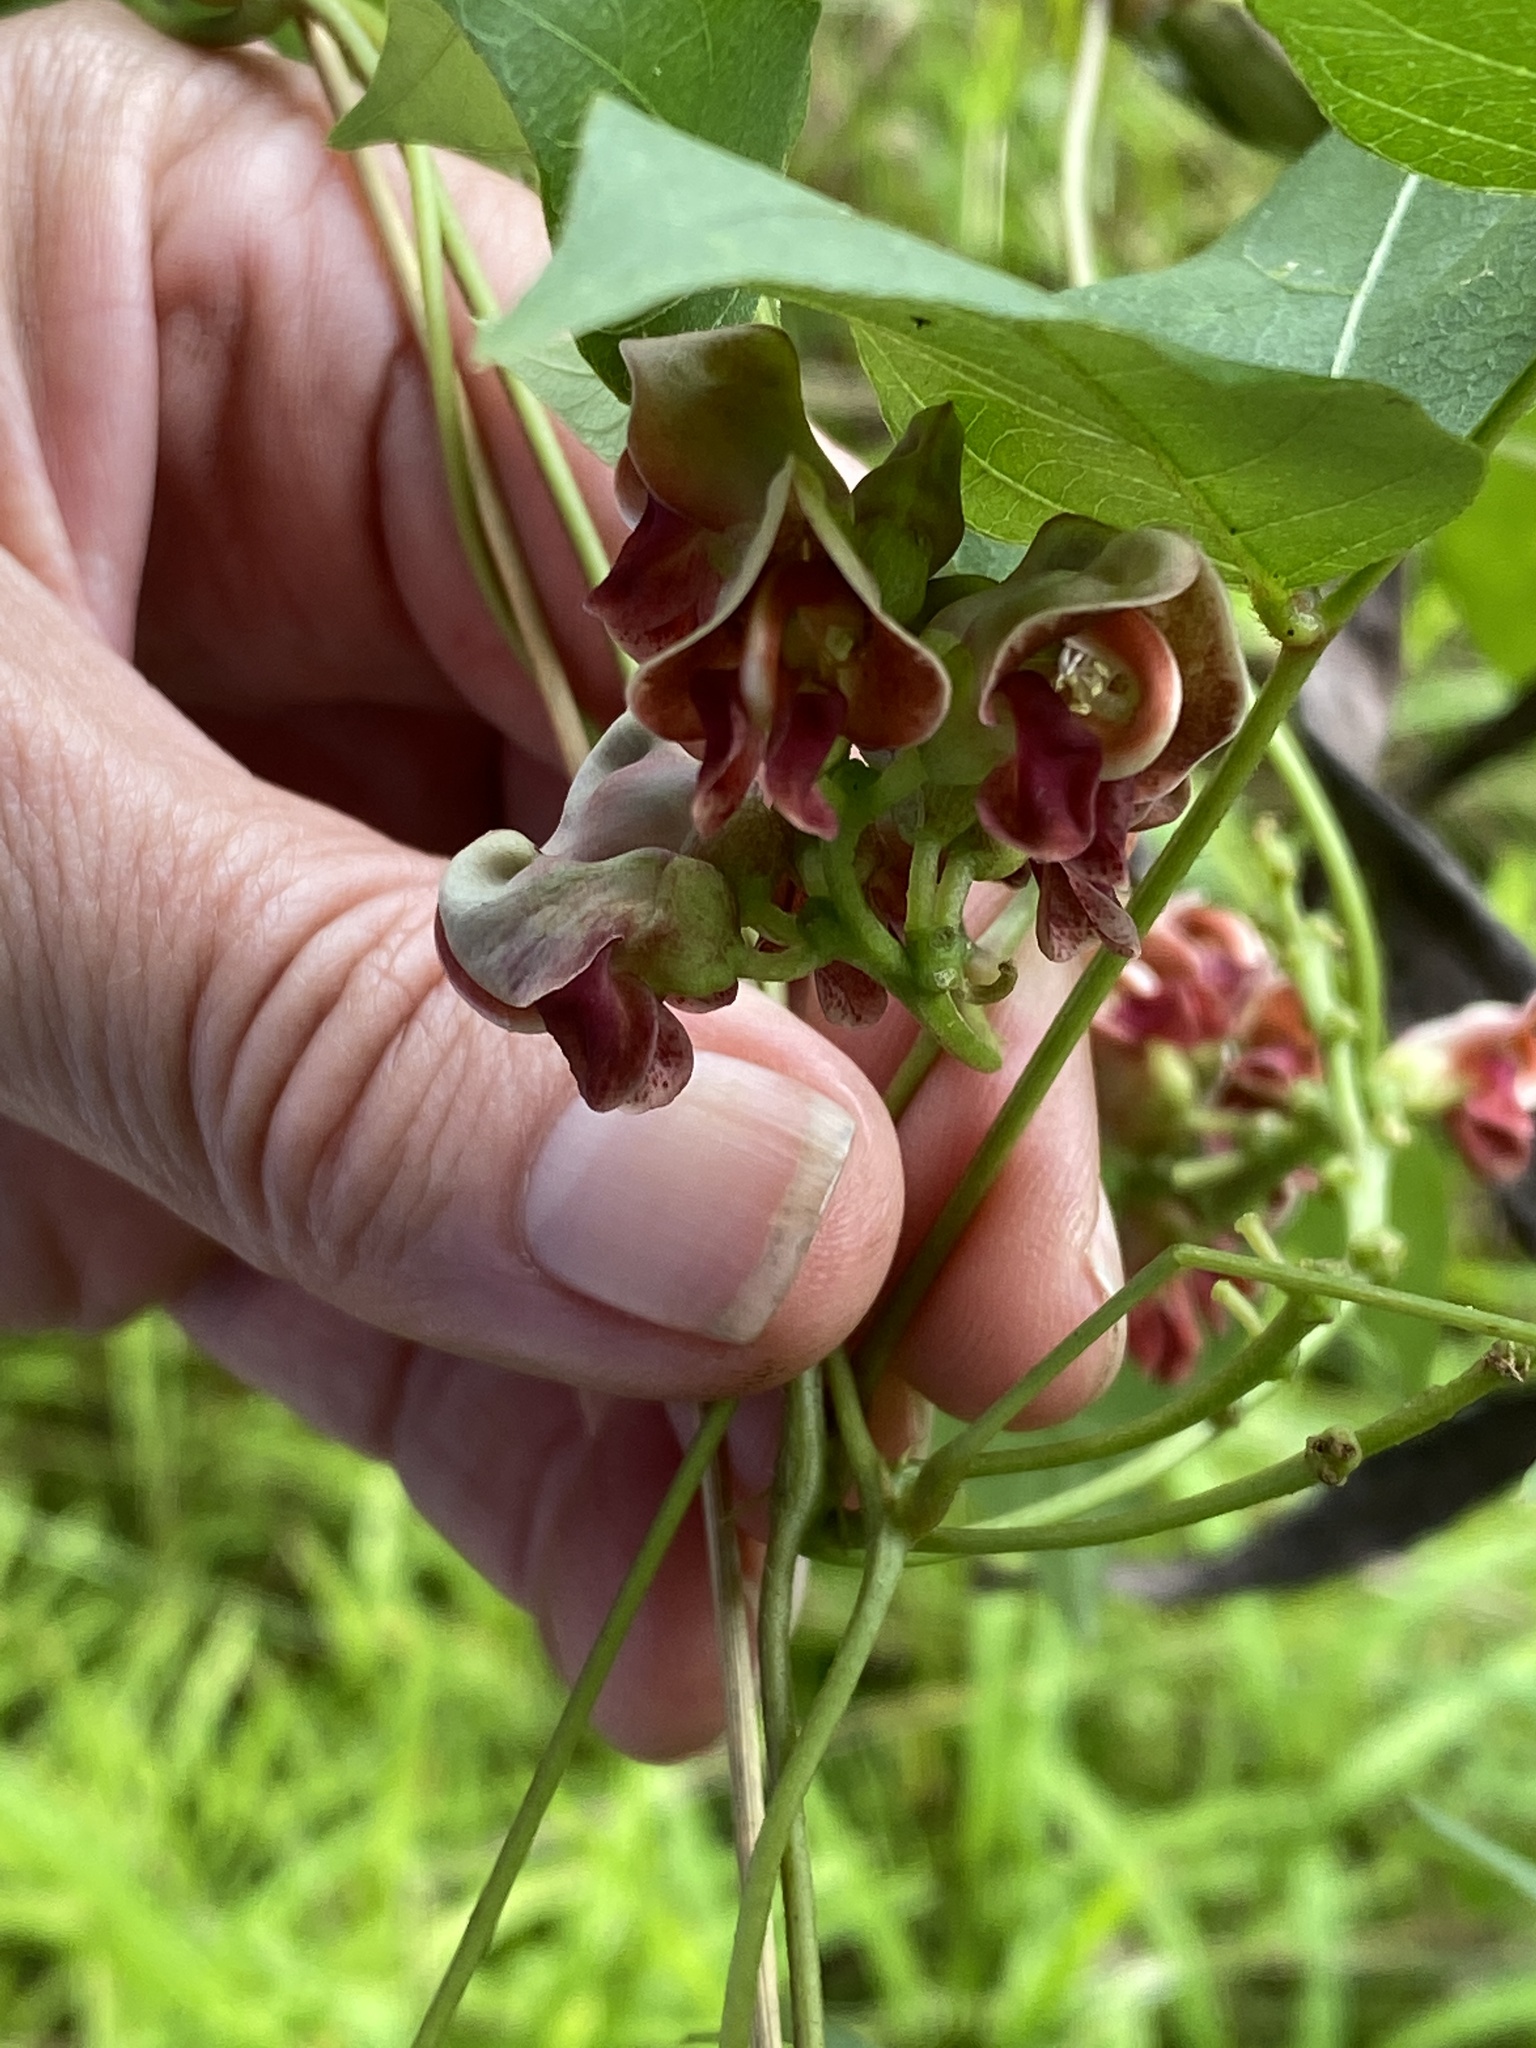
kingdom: Plantae
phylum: Tracheophyta
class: Magnoliopsida
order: Fabales
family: Fabaceae
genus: Apios
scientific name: Apios americana
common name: American potato-bean
